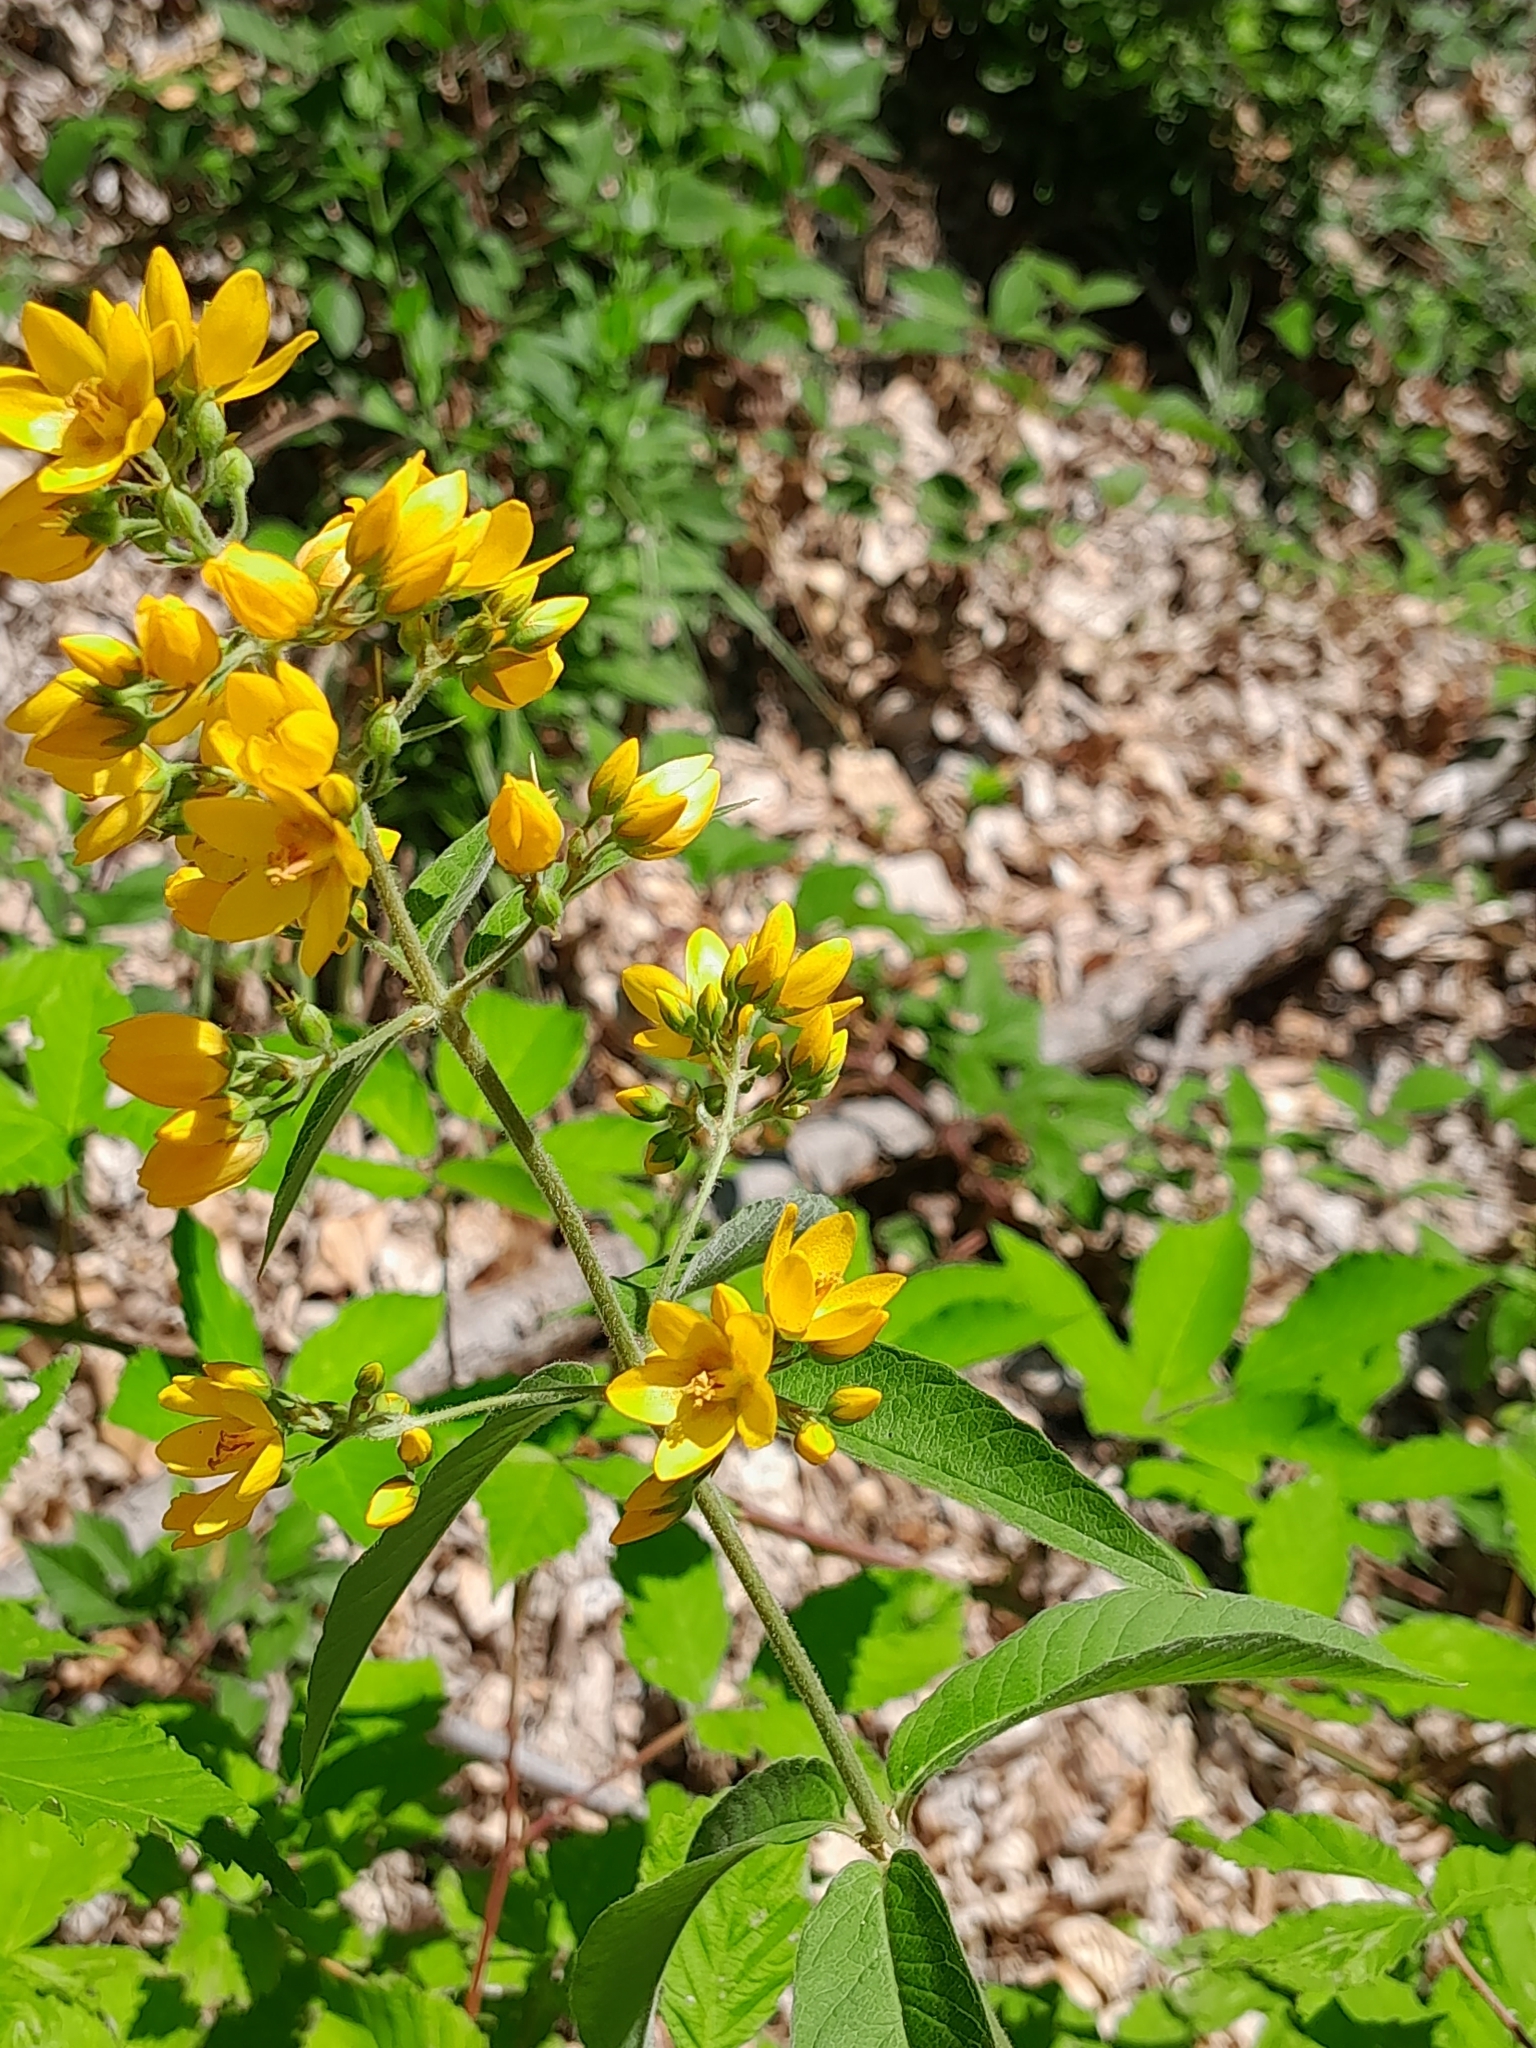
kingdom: Plantae
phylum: Tracheophyta
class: Magnoliopsida
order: Ericales
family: Primulaceae
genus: Lysimachia
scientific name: Lysimachia vulgaris
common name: Yellow loosestrife
